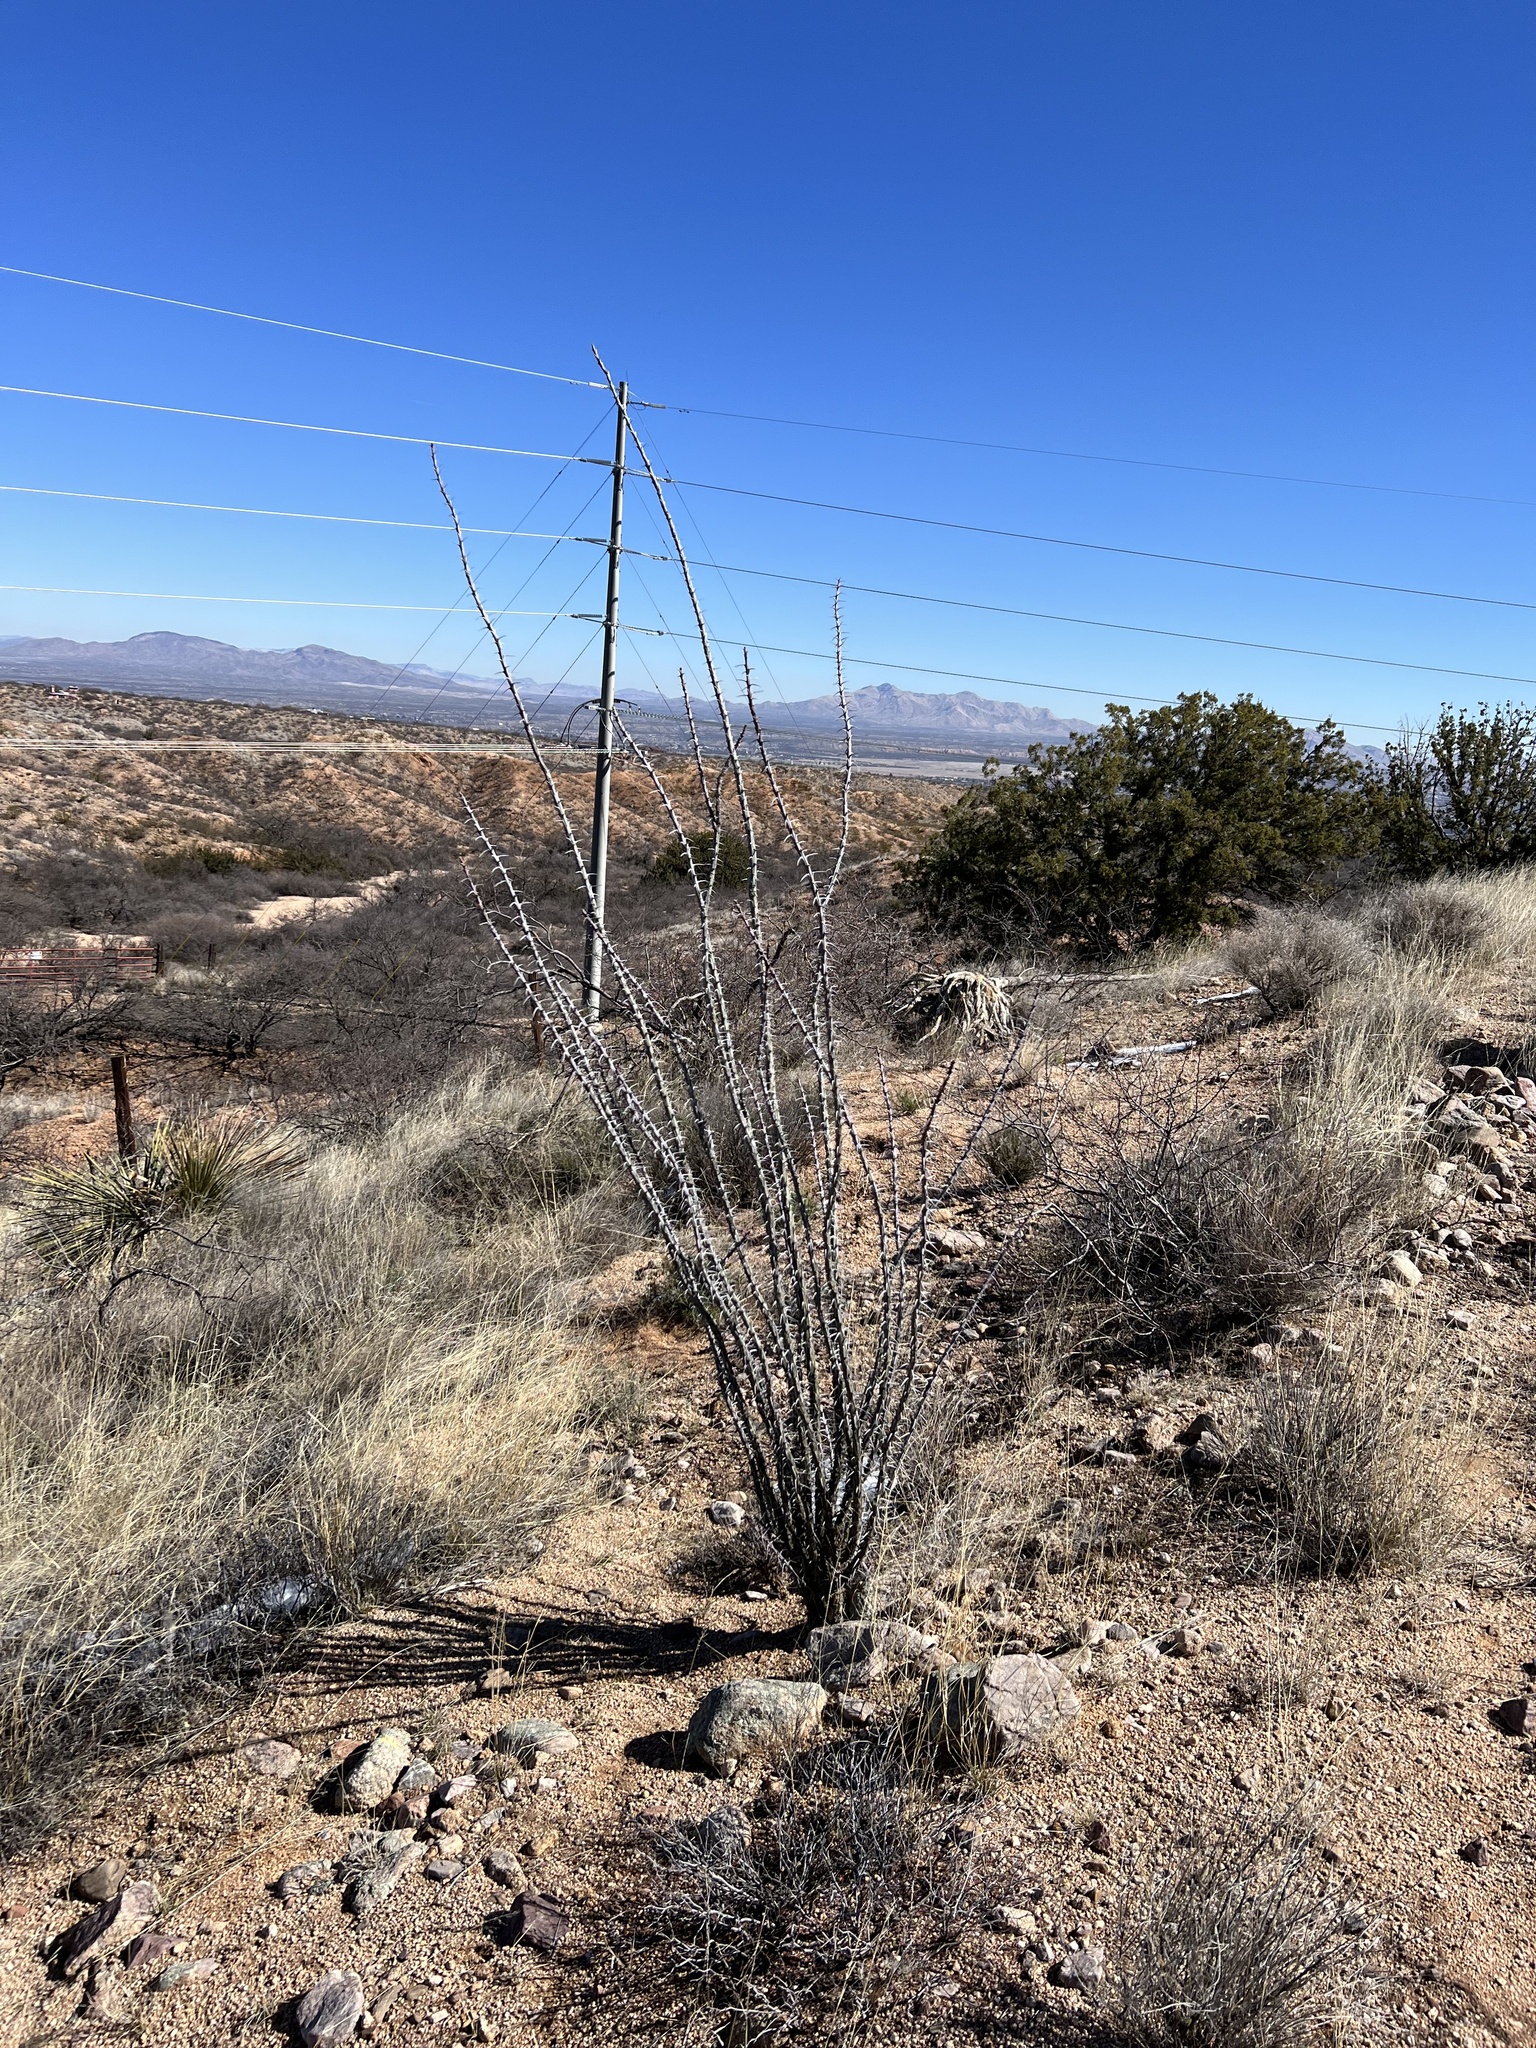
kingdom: Plantae
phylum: Tracheophyta
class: Magnoliopsida
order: Ericales
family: Fouquieriaceae
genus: Fouquieria
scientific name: Fouquieria splendens
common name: Vine-cactus
